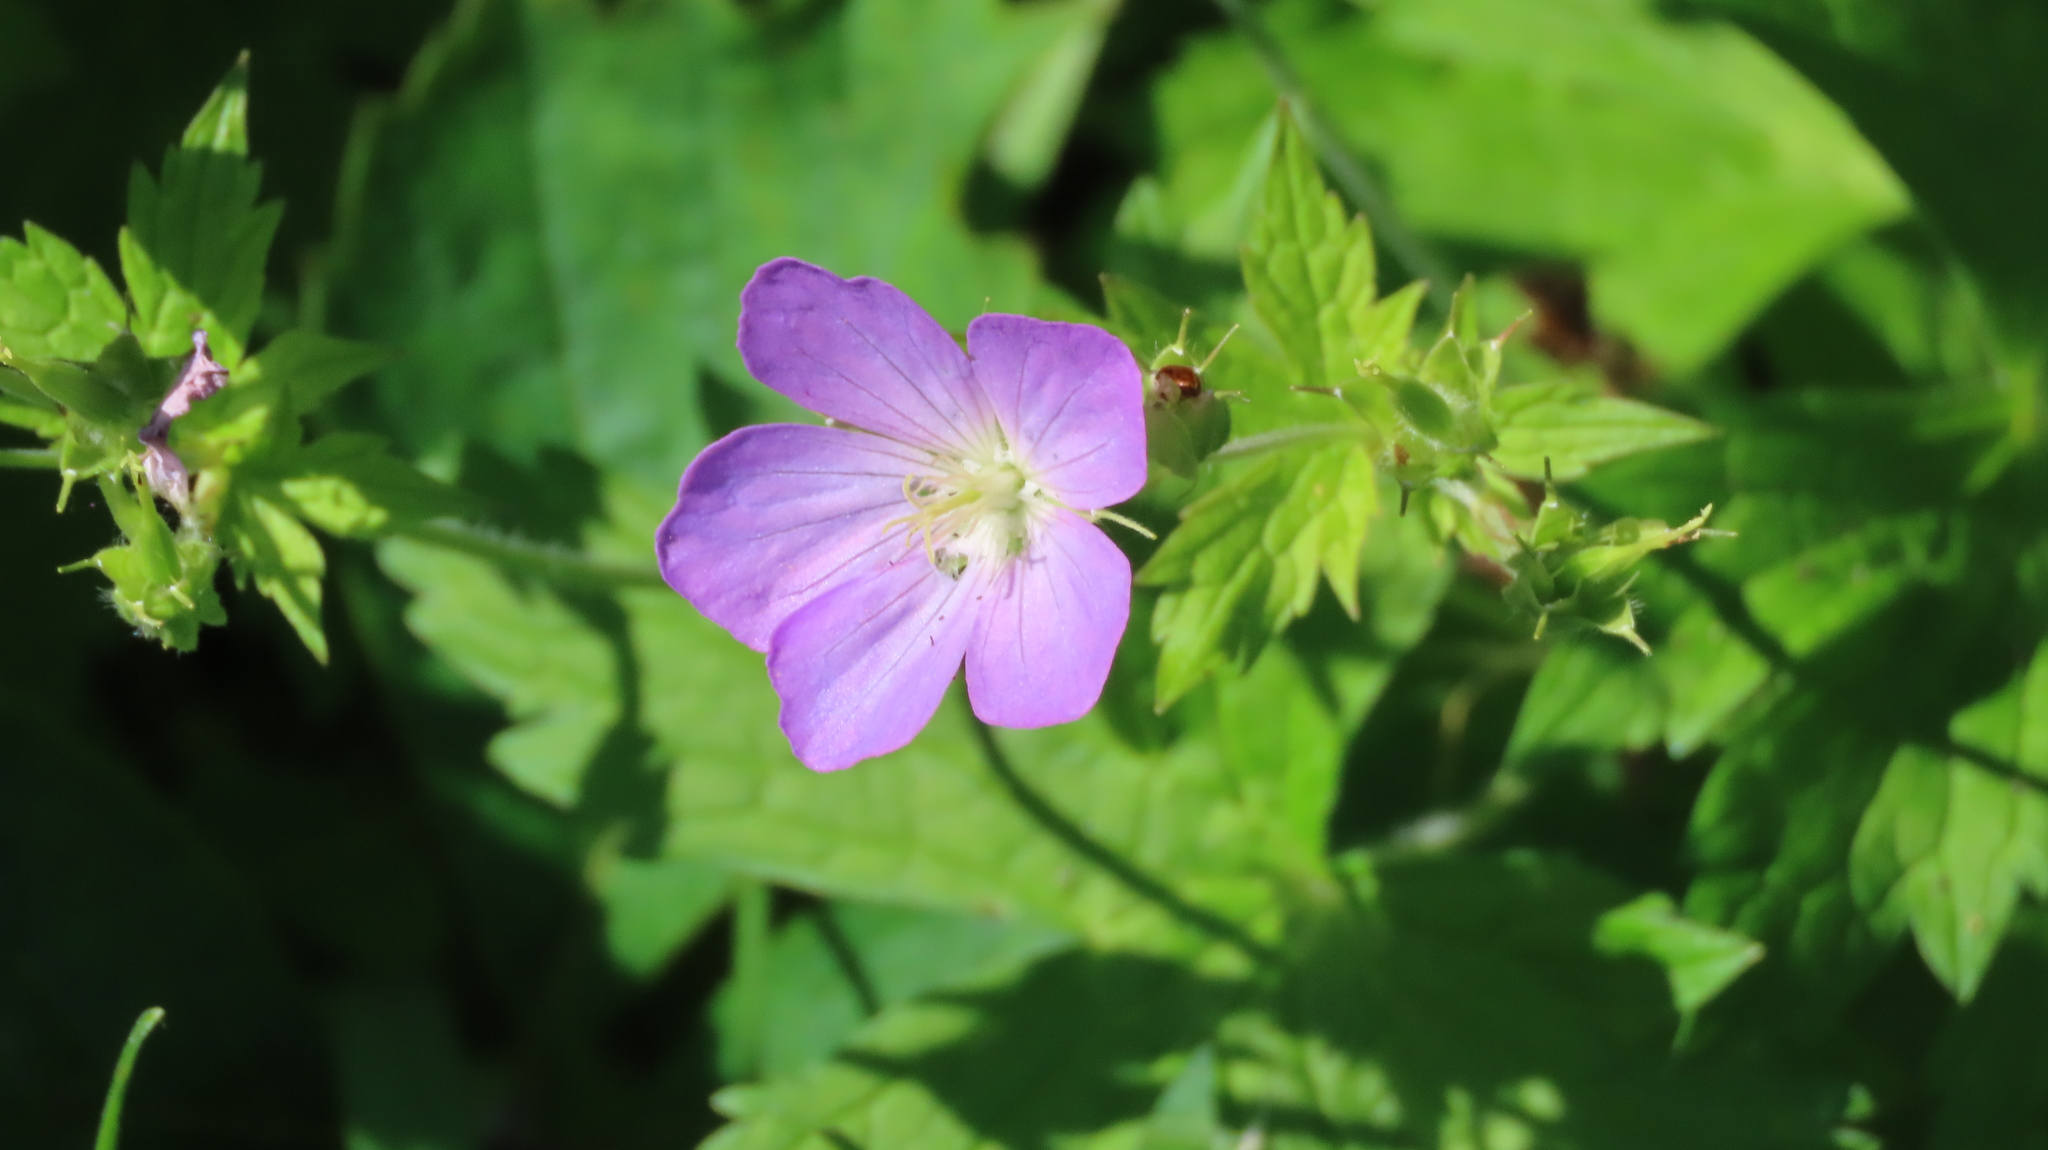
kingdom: Plantae
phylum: Tracheophyta
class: Magnoliopsida
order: Geraniales
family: Geraniaceae
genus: Geranium
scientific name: Geranium maculatum
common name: Spotted geranium
